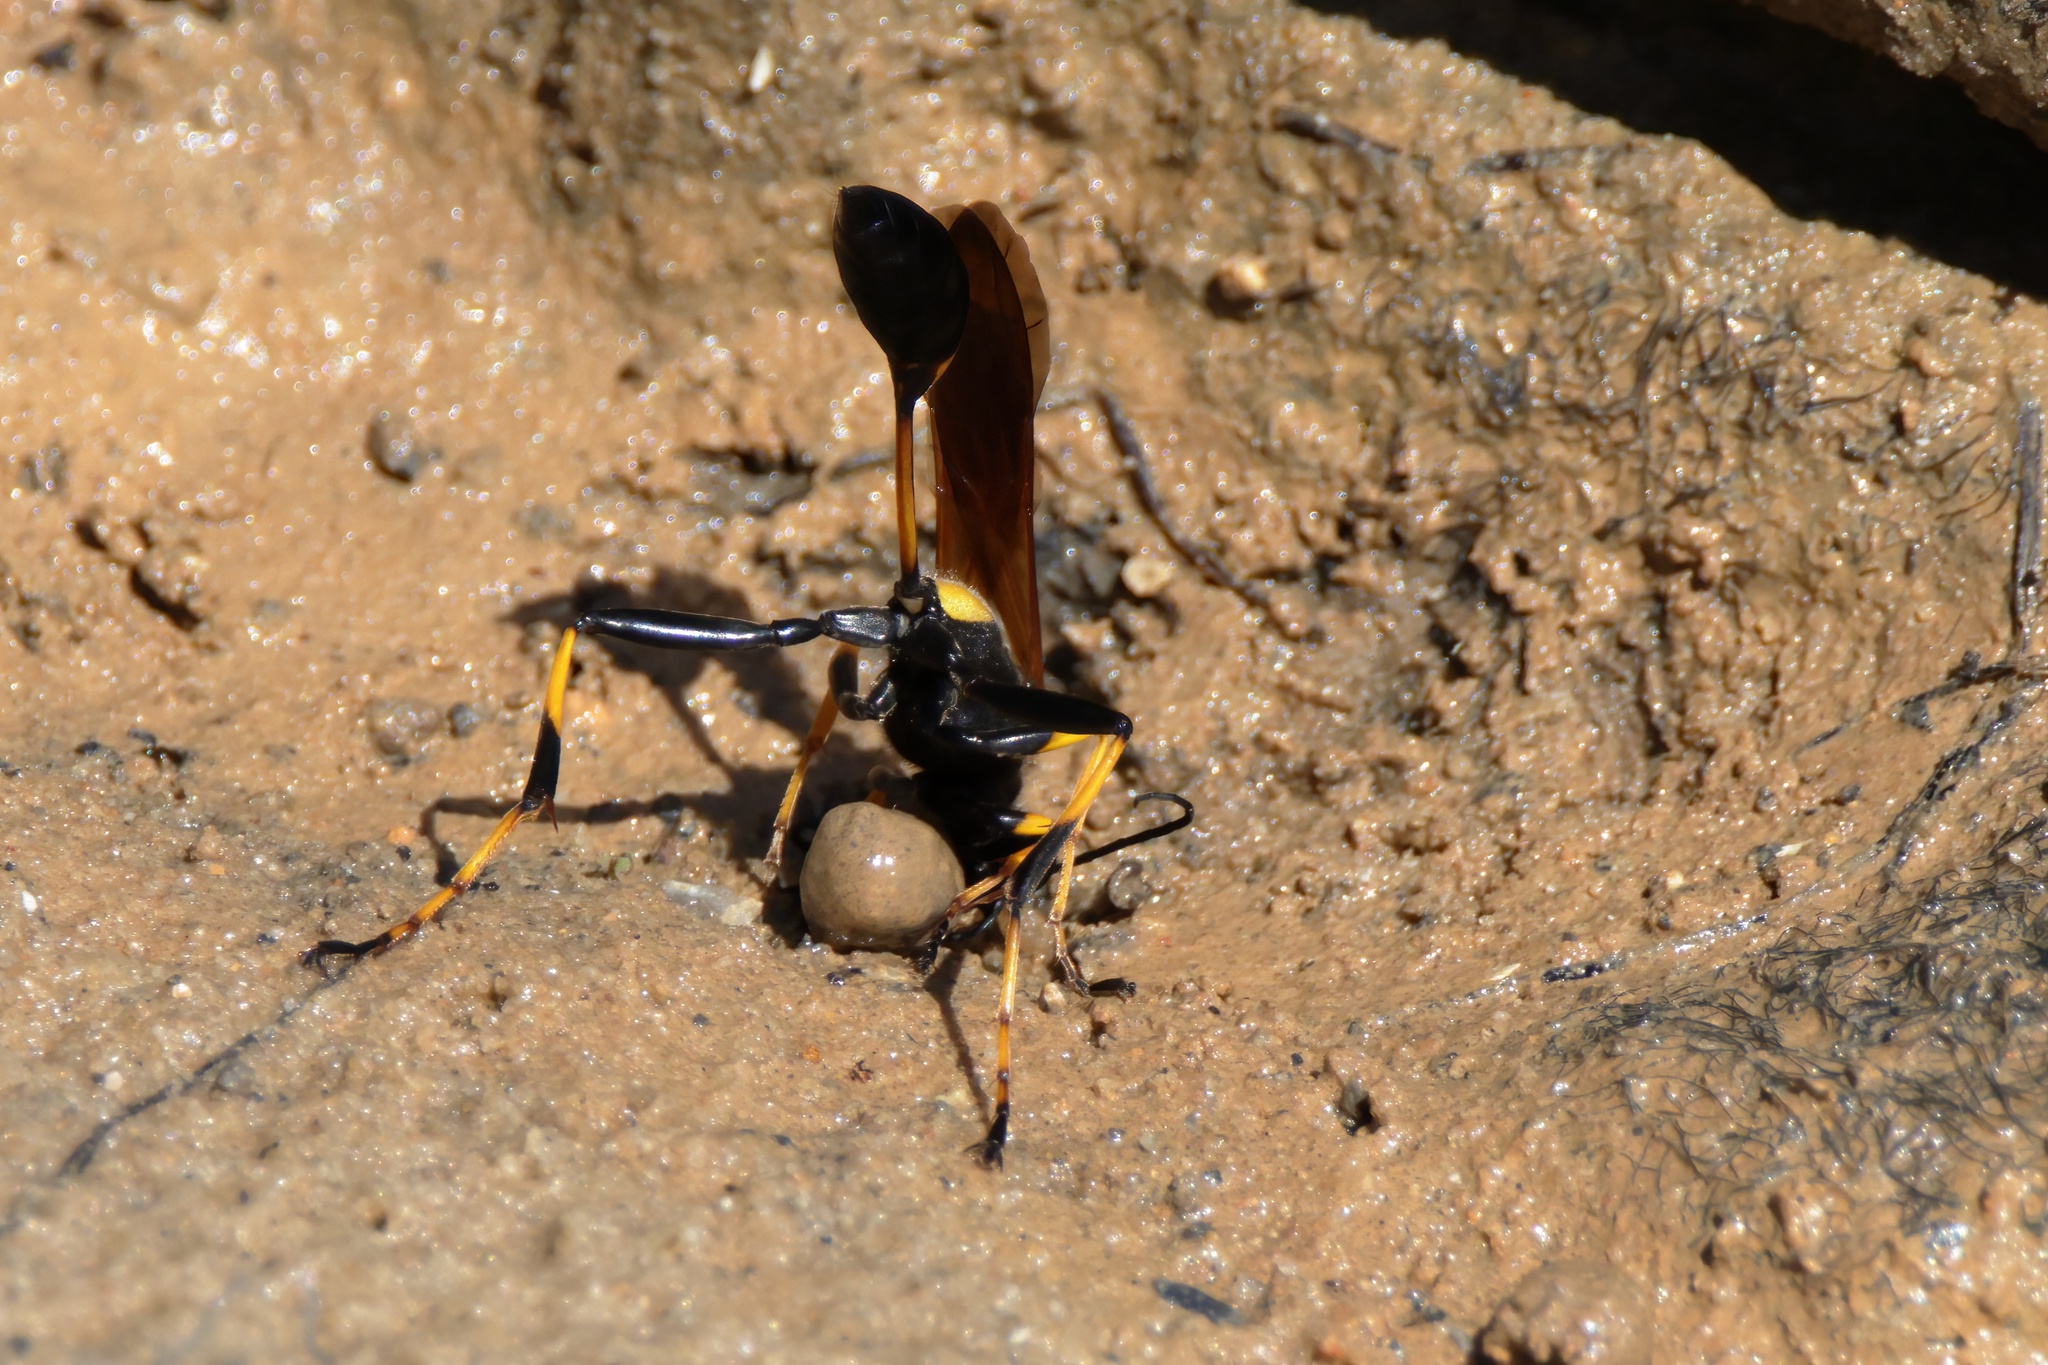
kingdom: Animalia
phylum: Arthropoda
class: Insecta
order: Hymenoptera
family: Sphecidae
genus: Sceliphron
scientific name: Sceliphron caementarium
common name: Mud dauber
